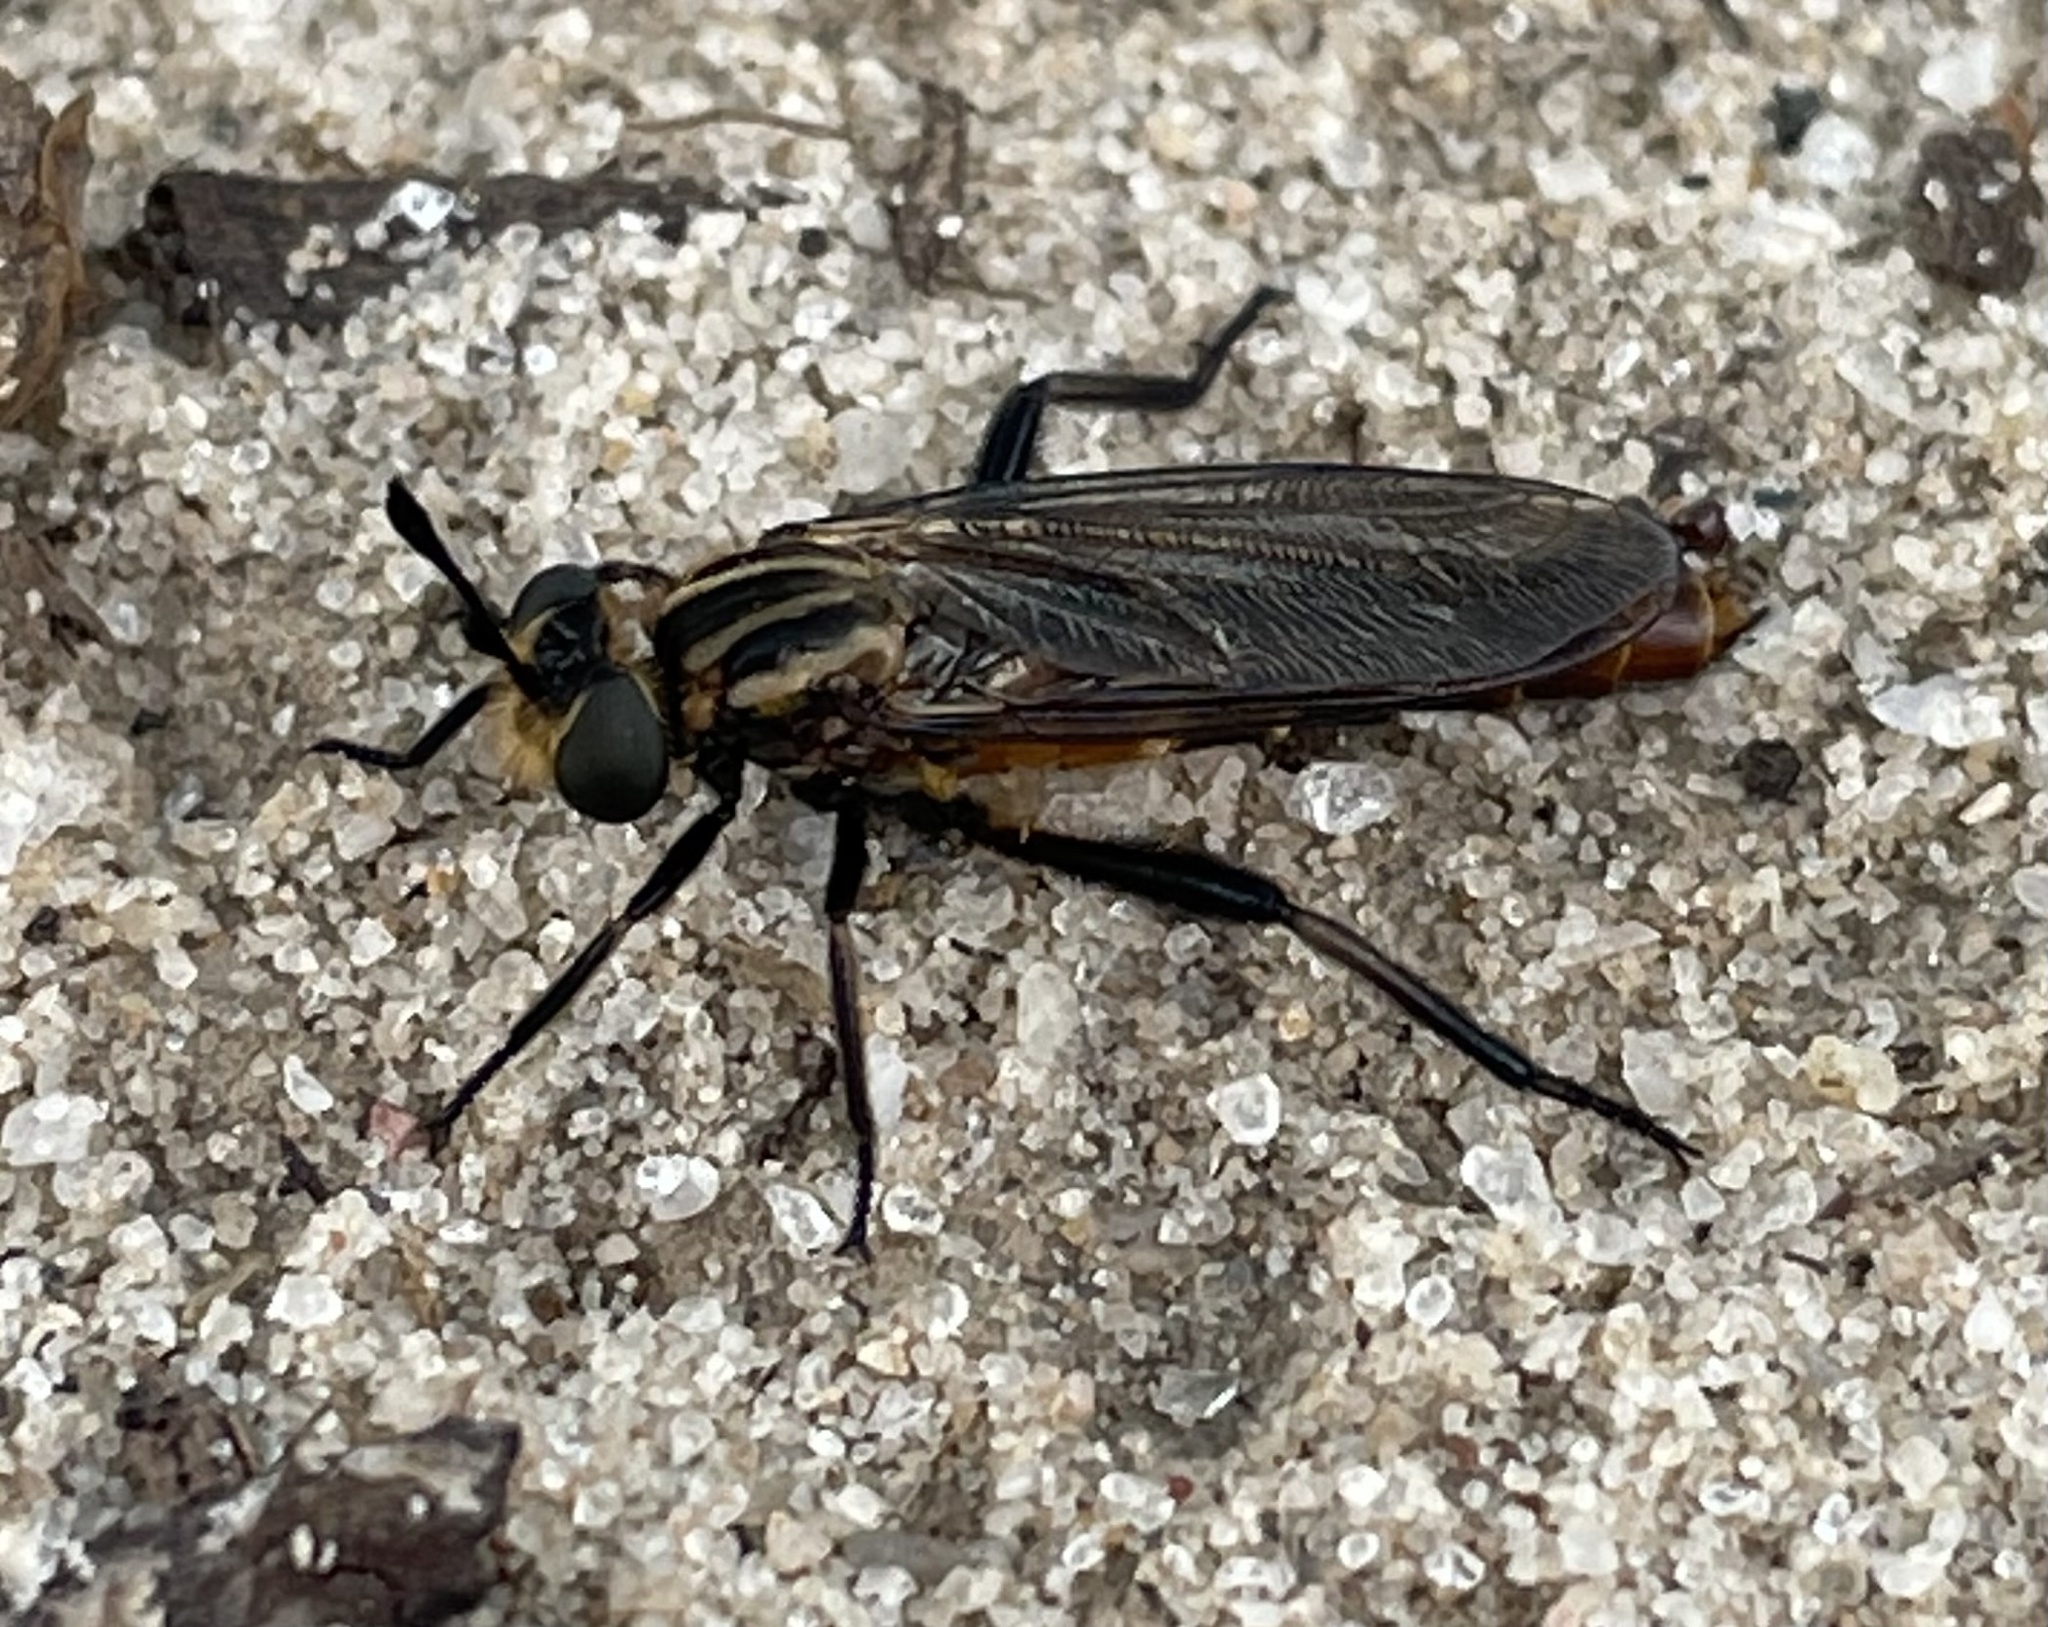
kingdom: Animalia
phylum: Arthropoda
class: Insecta
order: Diptera
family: Mydidae
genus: Nemomydas
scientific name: Nemomydas hooki
